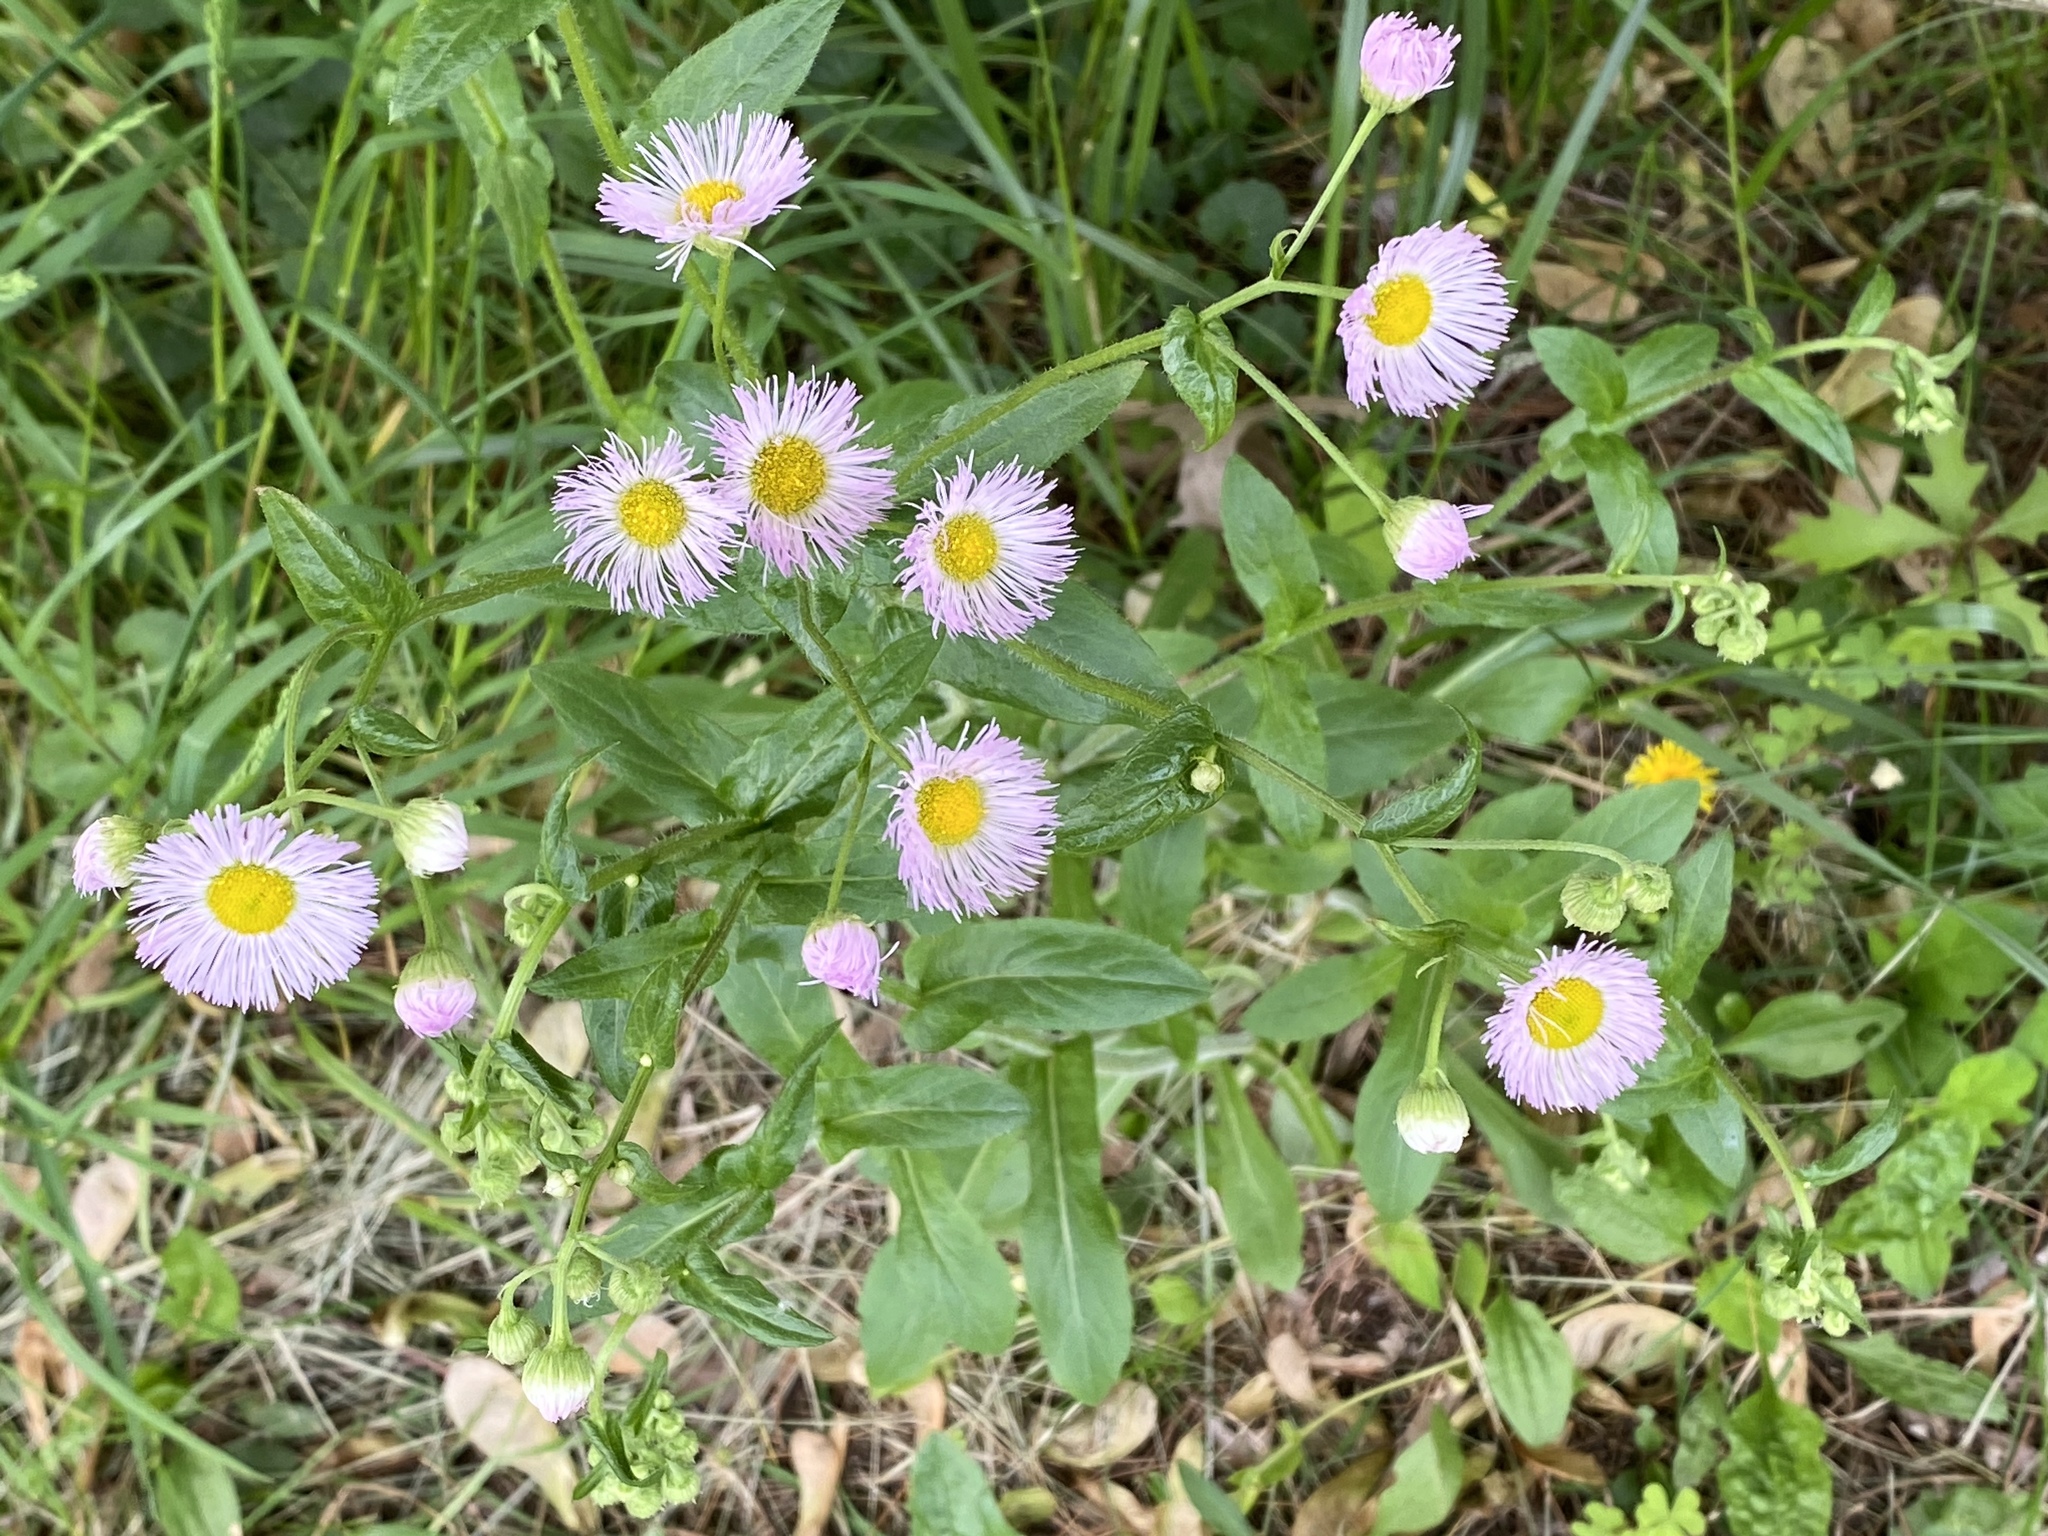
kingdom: Plantae
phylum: Tracheophyta
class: Magnoliopsida
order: Asterales
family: Asteraceae
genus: Erigeron
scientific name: Erigeron philadelphicus
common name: Robin's-plantain
